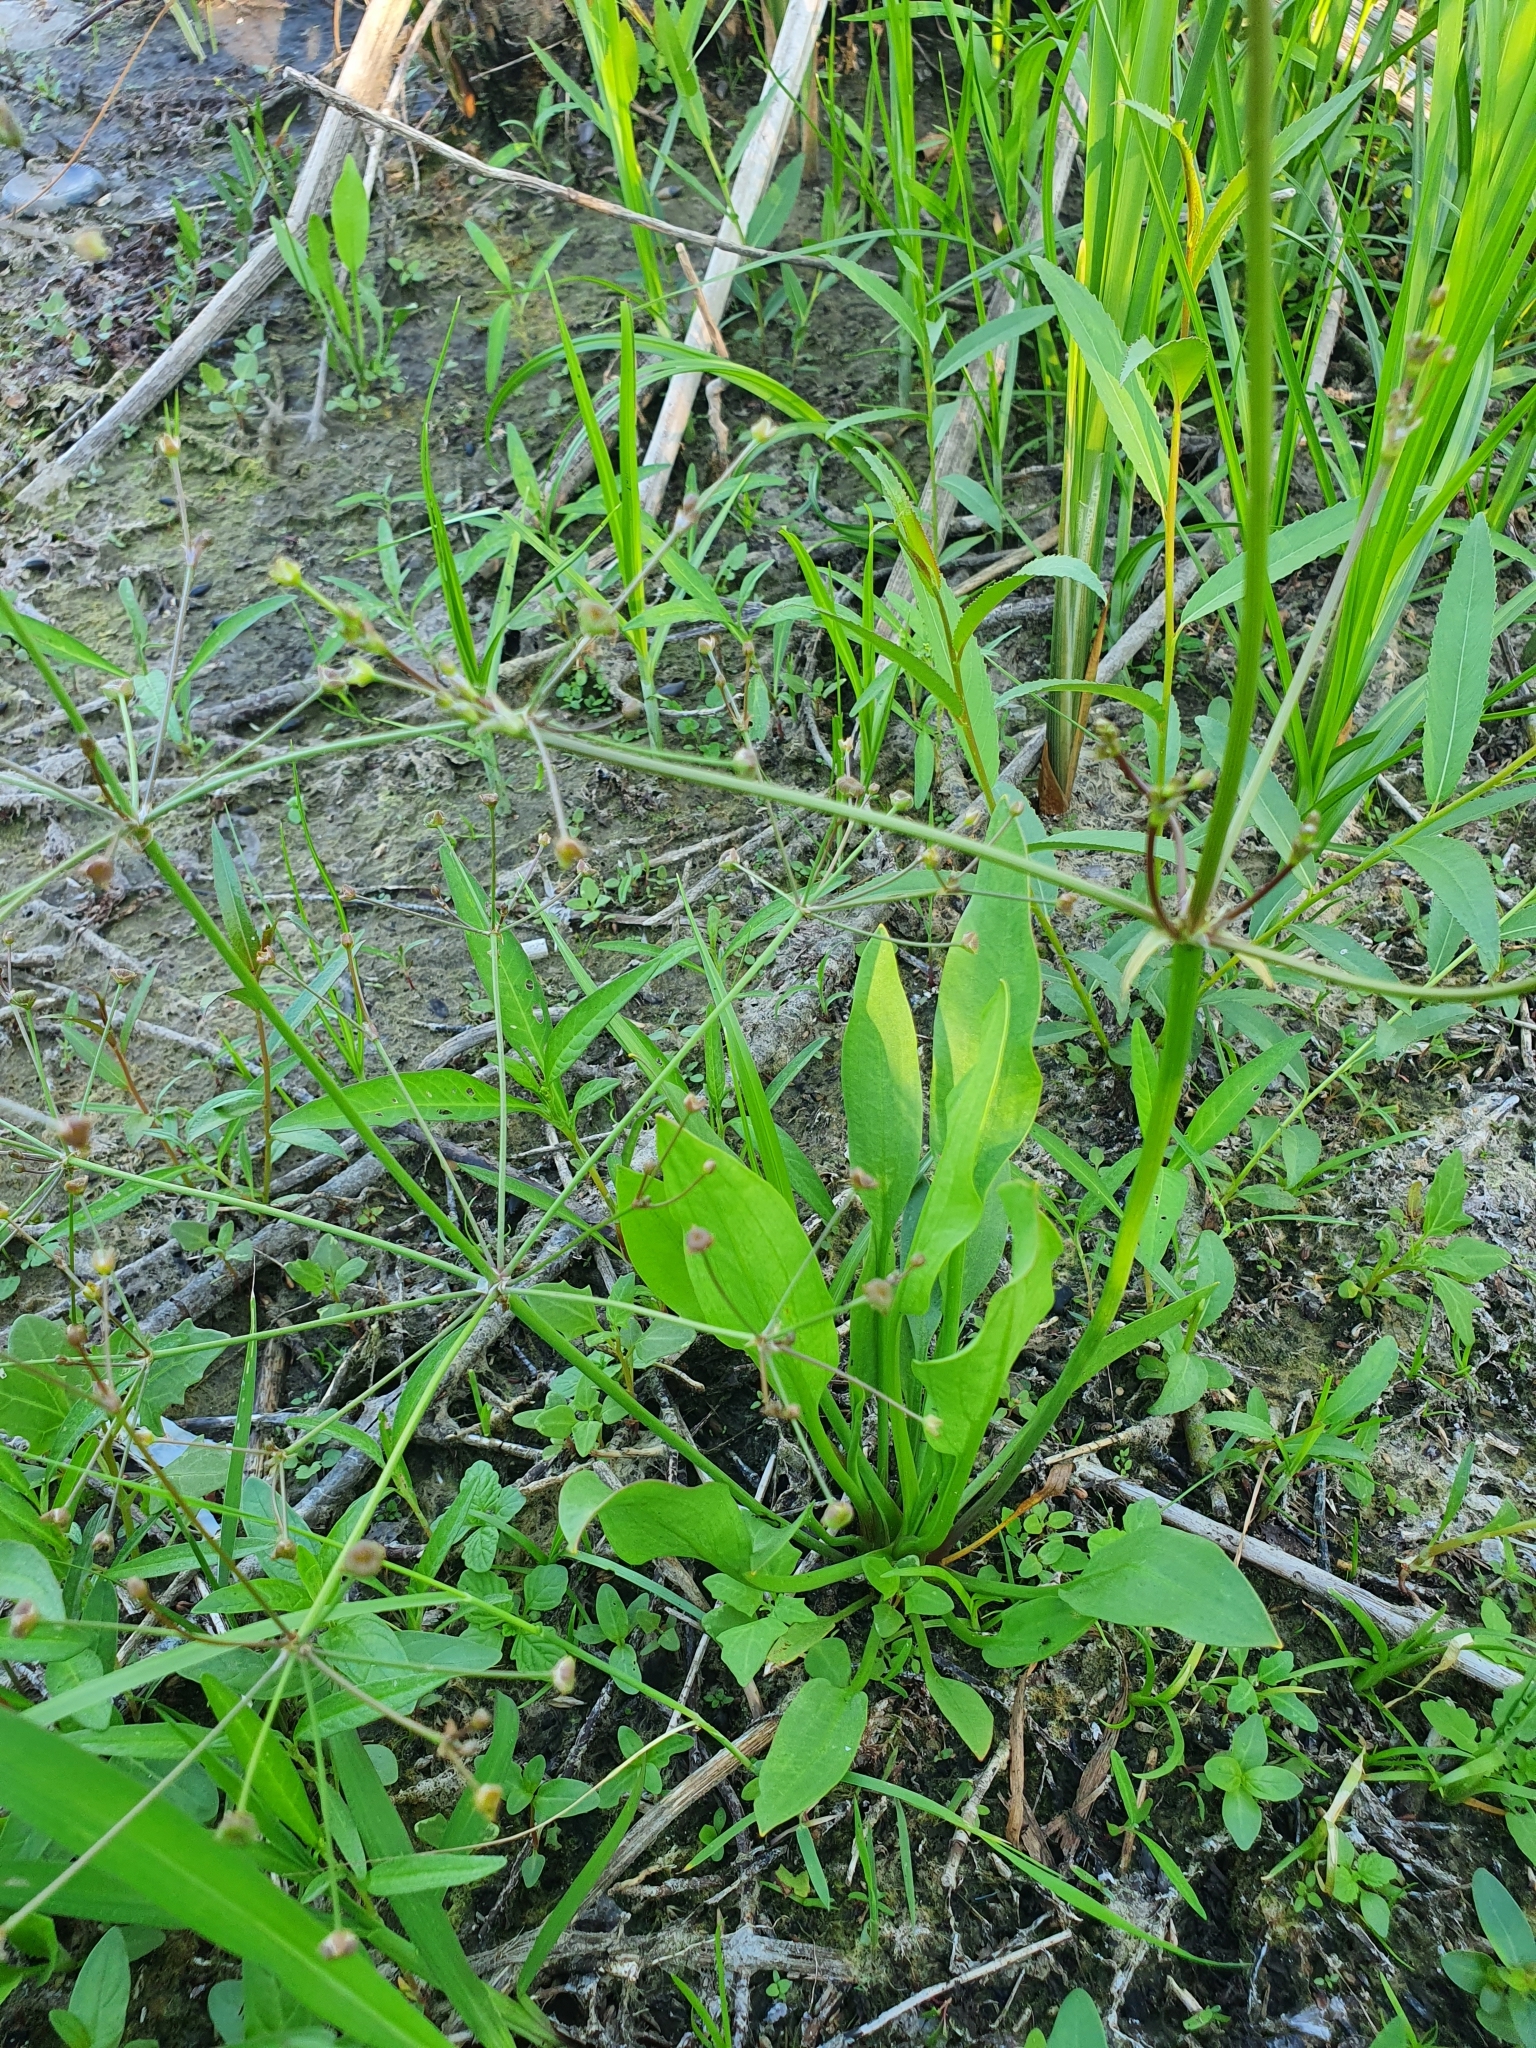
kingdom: Plantae
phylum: Tracheophyta
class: Liliopsida
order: Alismatales
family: Alismataceae
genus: Alisma
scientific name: Alisma lanceolatum
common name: Narrow-leaved water-plantain
